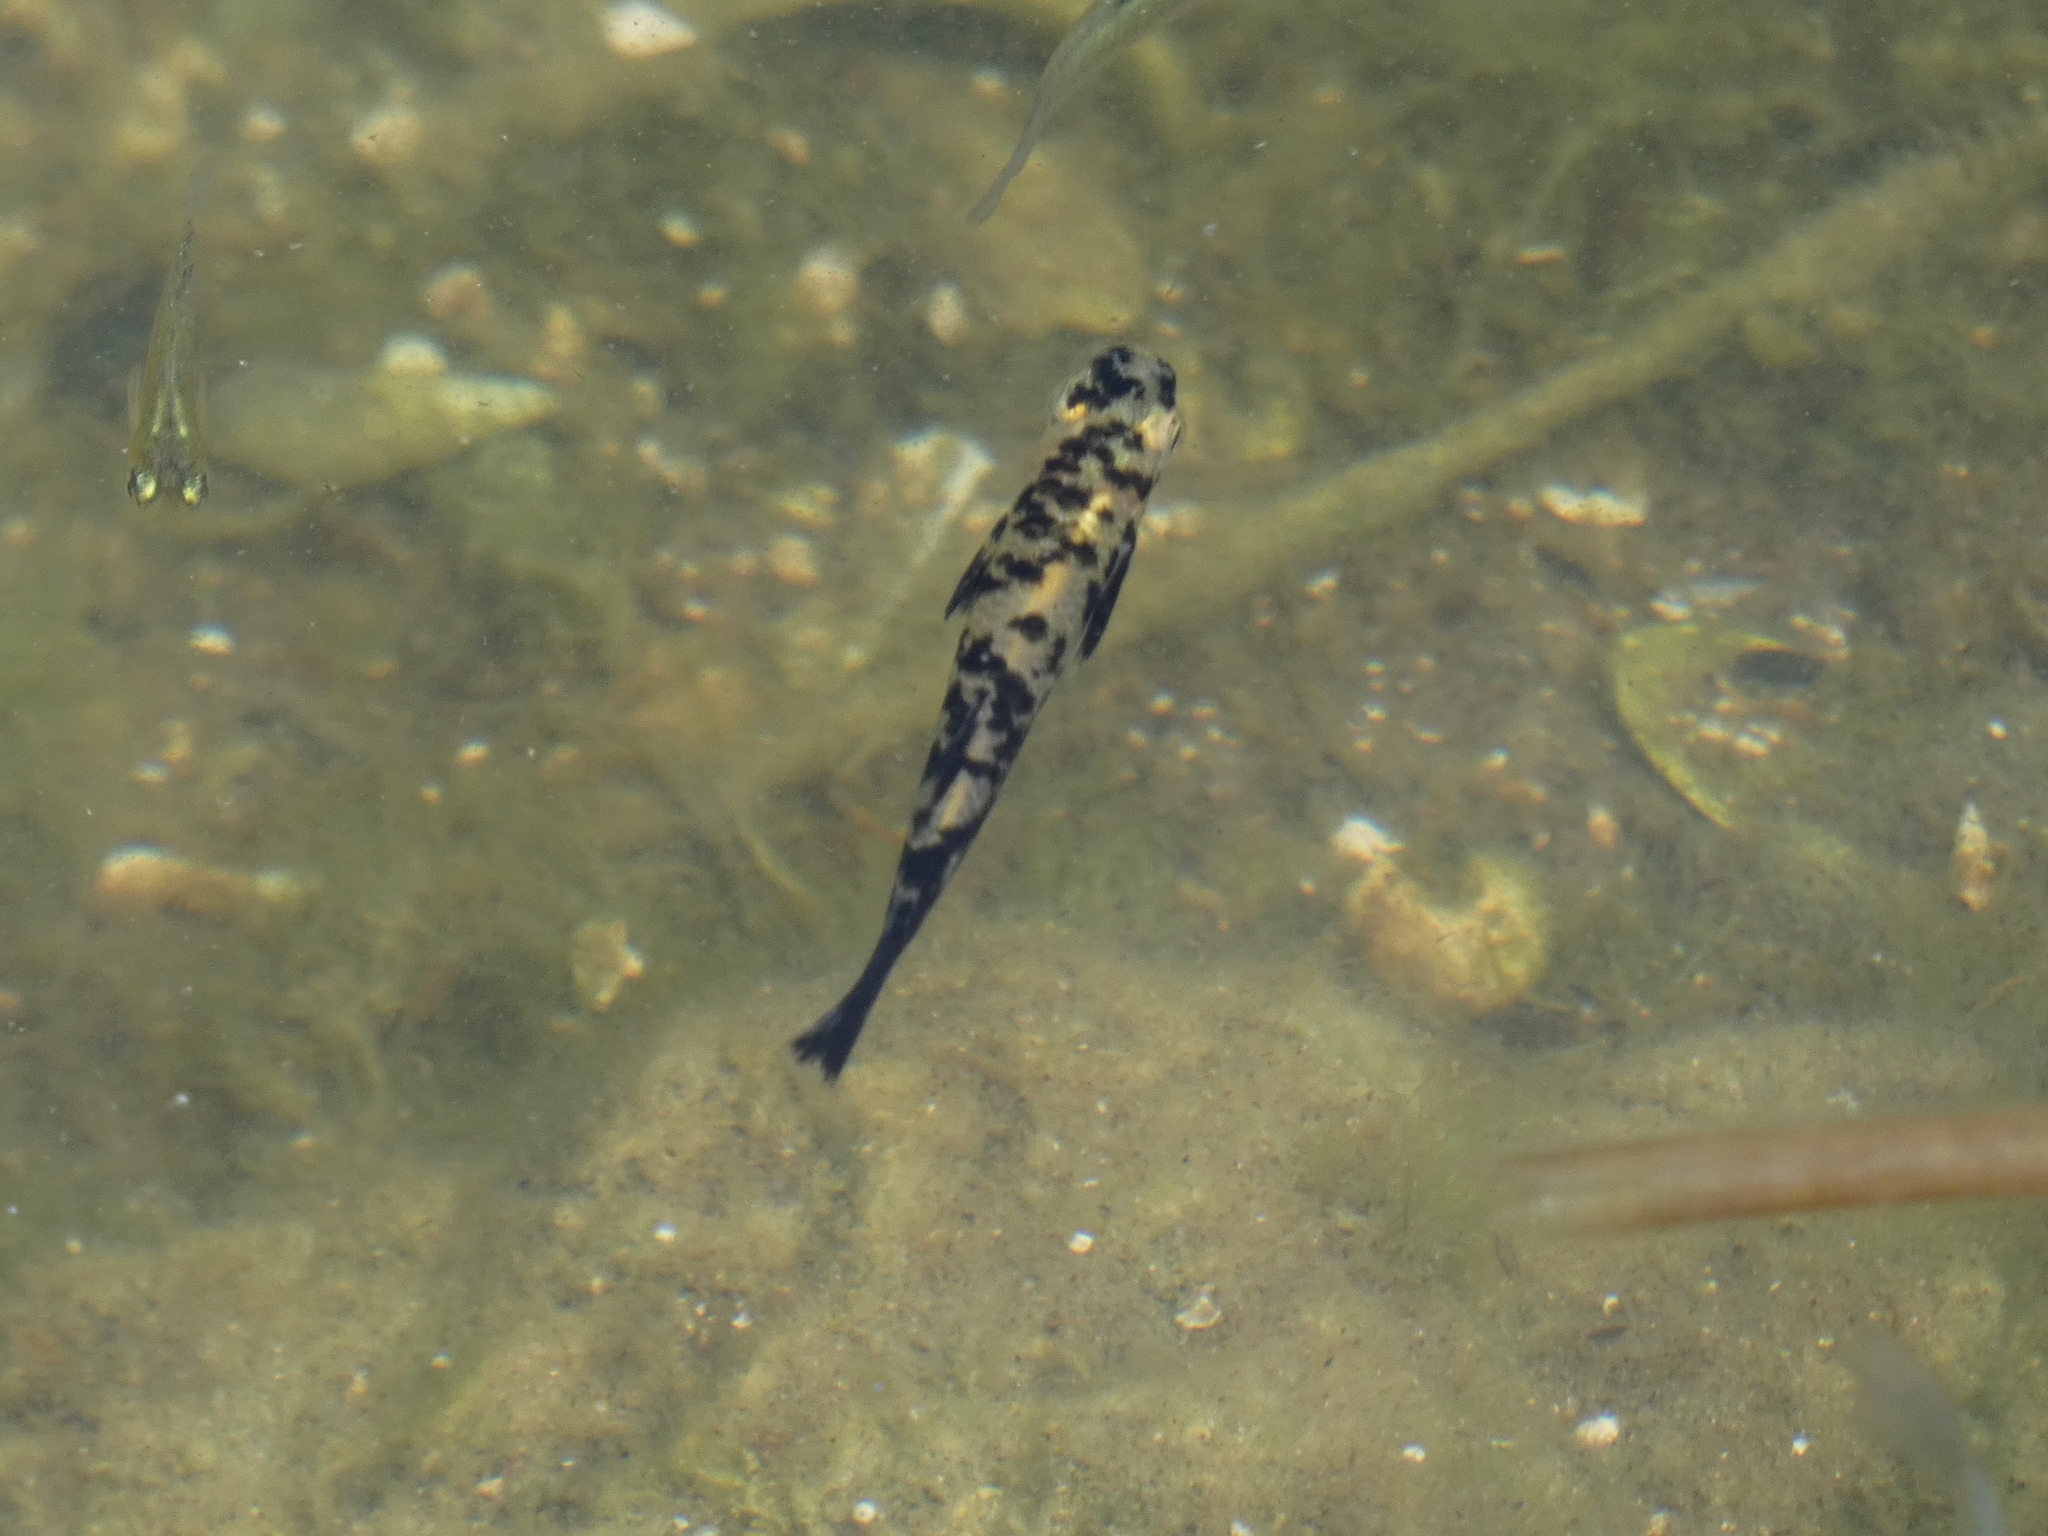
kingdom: Animalia
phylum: Chordata
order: Cyprinodontiformes
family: Poeciliidae
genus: Gambusia
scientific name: Gambusia holbrooki
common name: Eastern mosquitofish
